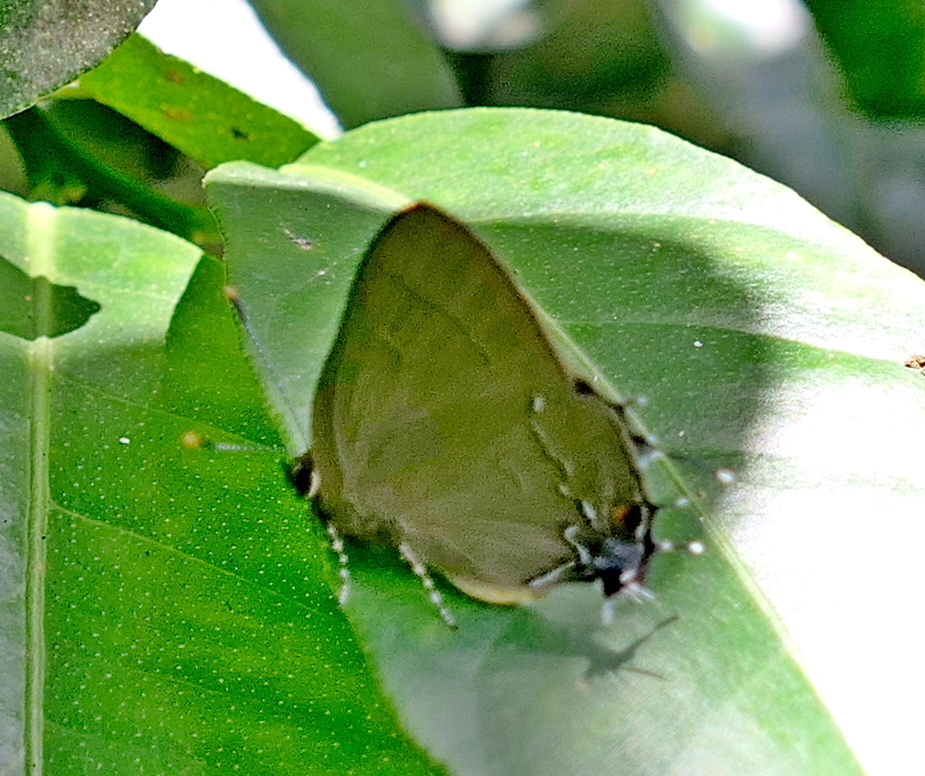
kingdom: Animalia
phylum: Arthropoda
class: Insecta
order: Lepidoptera
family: Lycaenidae
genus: Ziegleria
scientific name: Ziegleria hesperitis
